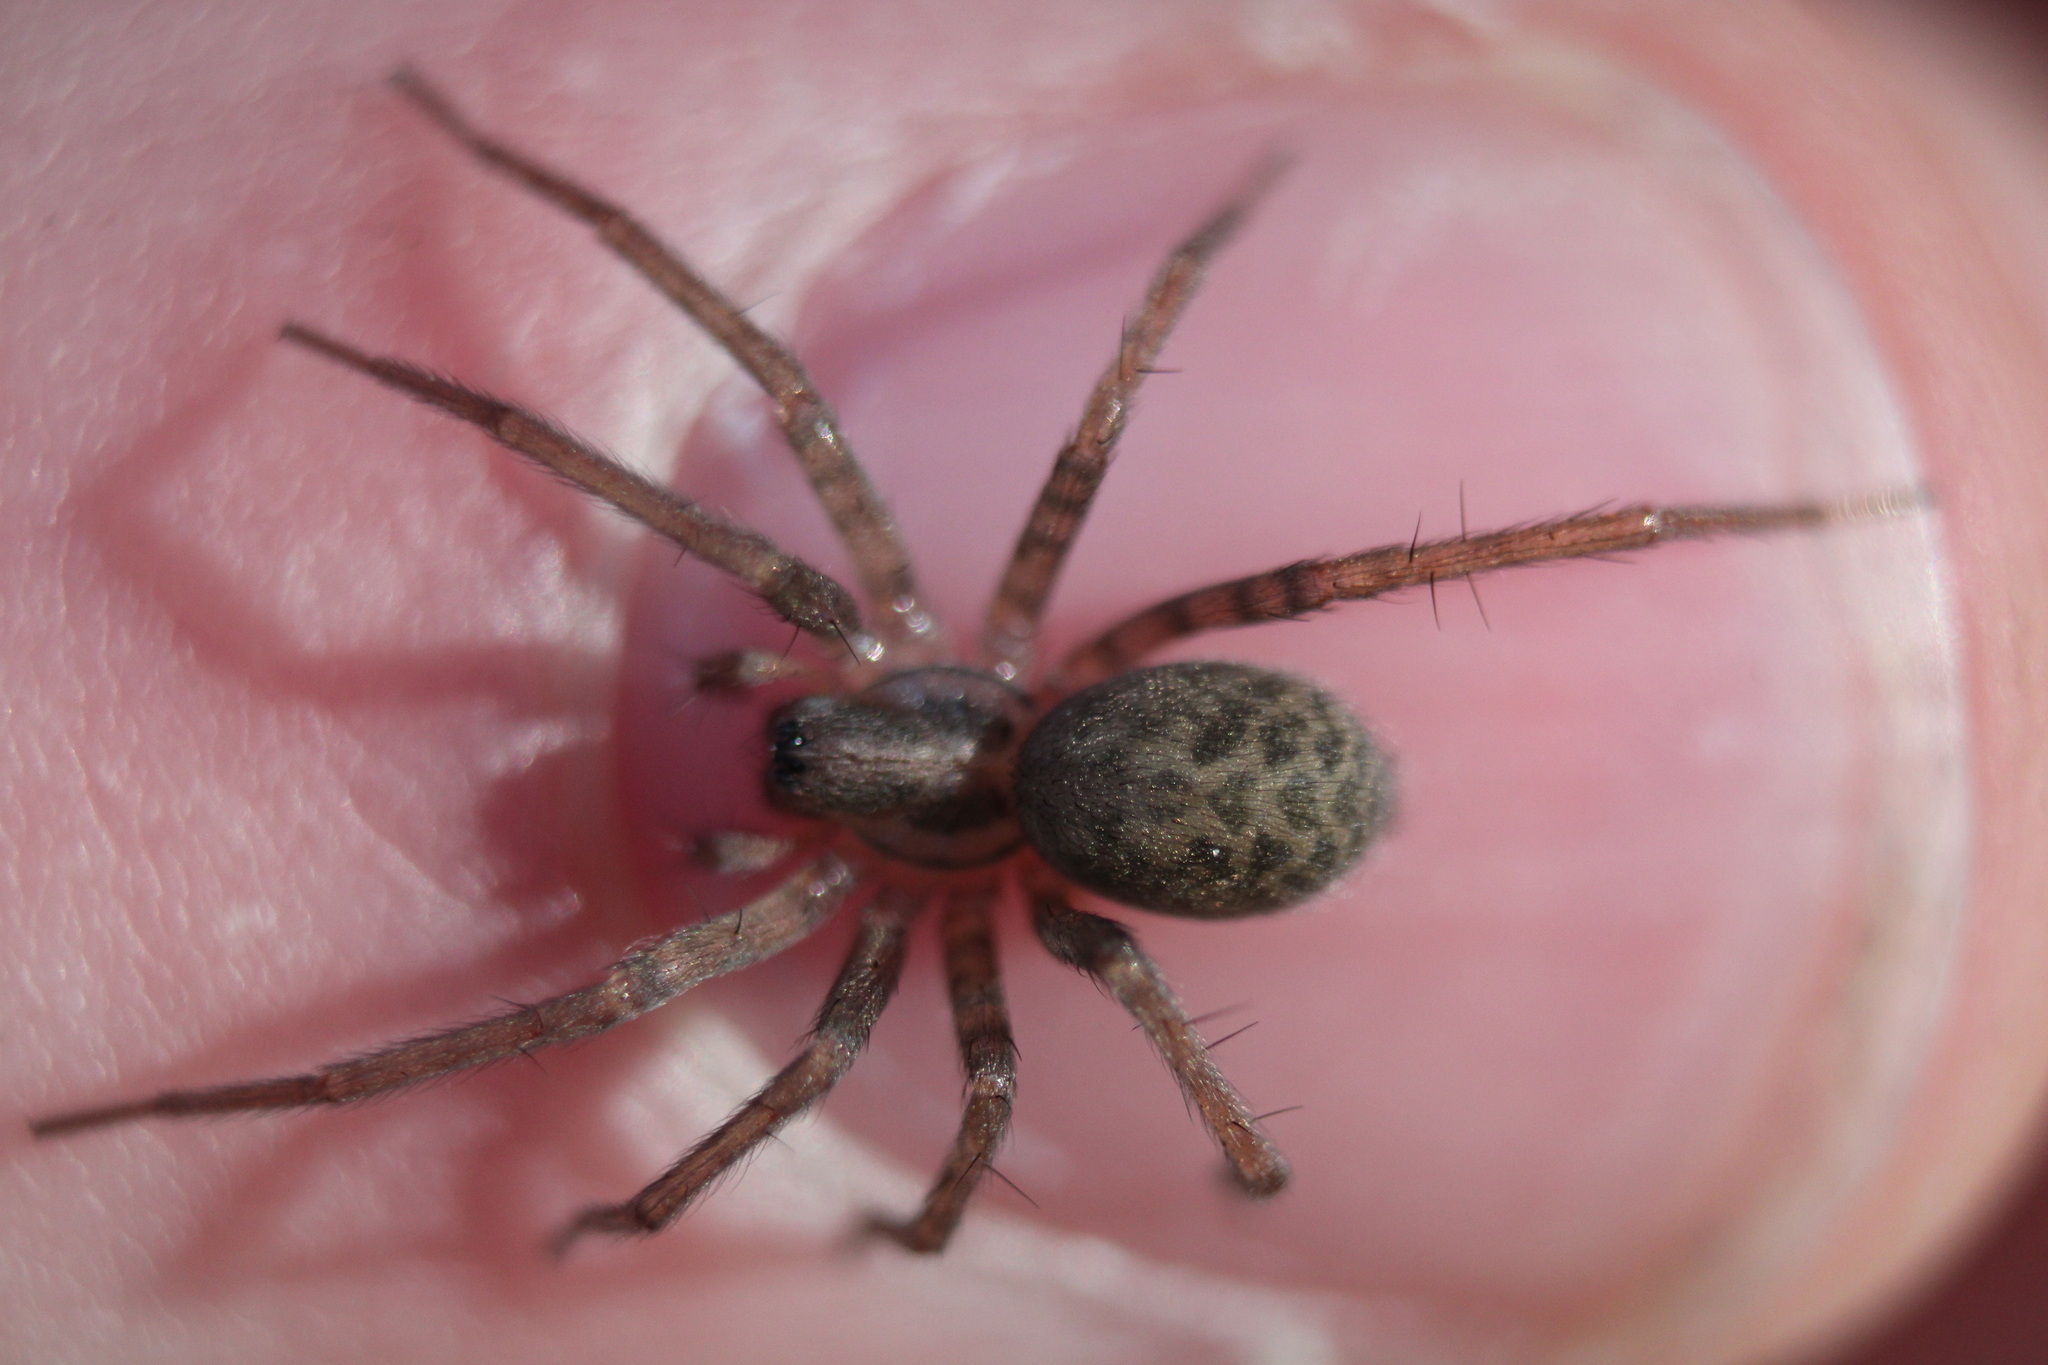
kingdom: Animalia
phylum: Arthropoda
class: Arachnida
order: Araneae
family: Agelenidae
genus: Tegenaria
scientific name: Tegenaria domestica
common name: Barn funnel weaver
